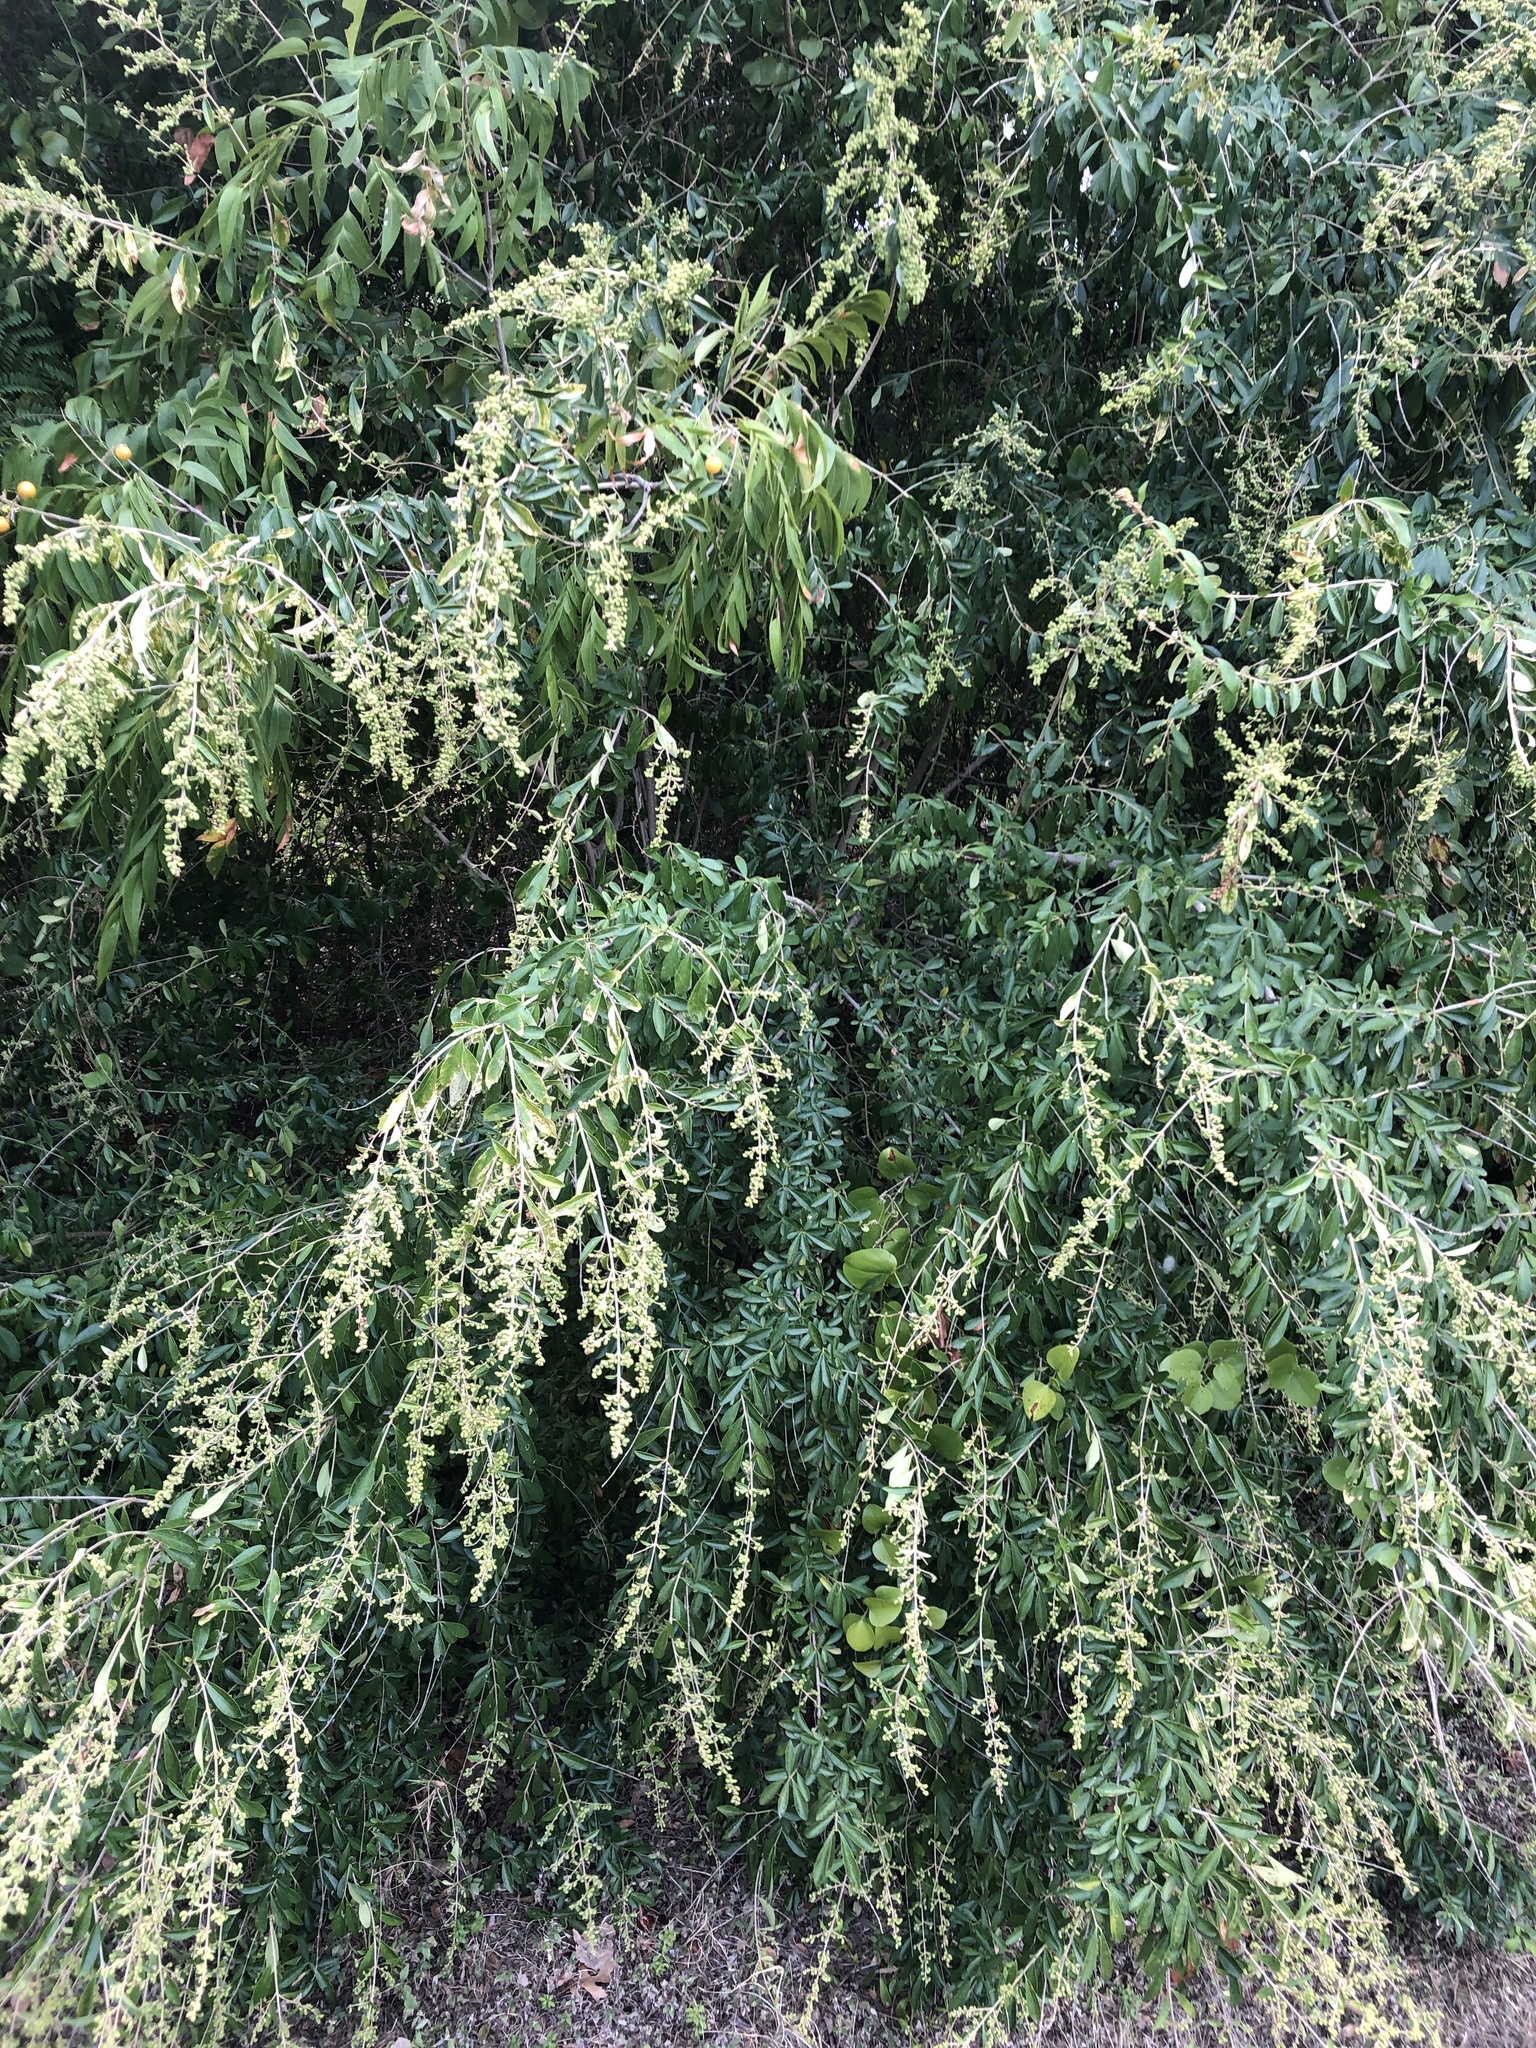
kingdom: Plantae
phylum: Tracheophyta
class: Magnoliopsida
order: Lamiales
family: Oleaceae
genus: Ligustrum
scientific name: Ligustrum quihoui
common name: Waxyleaf privet
